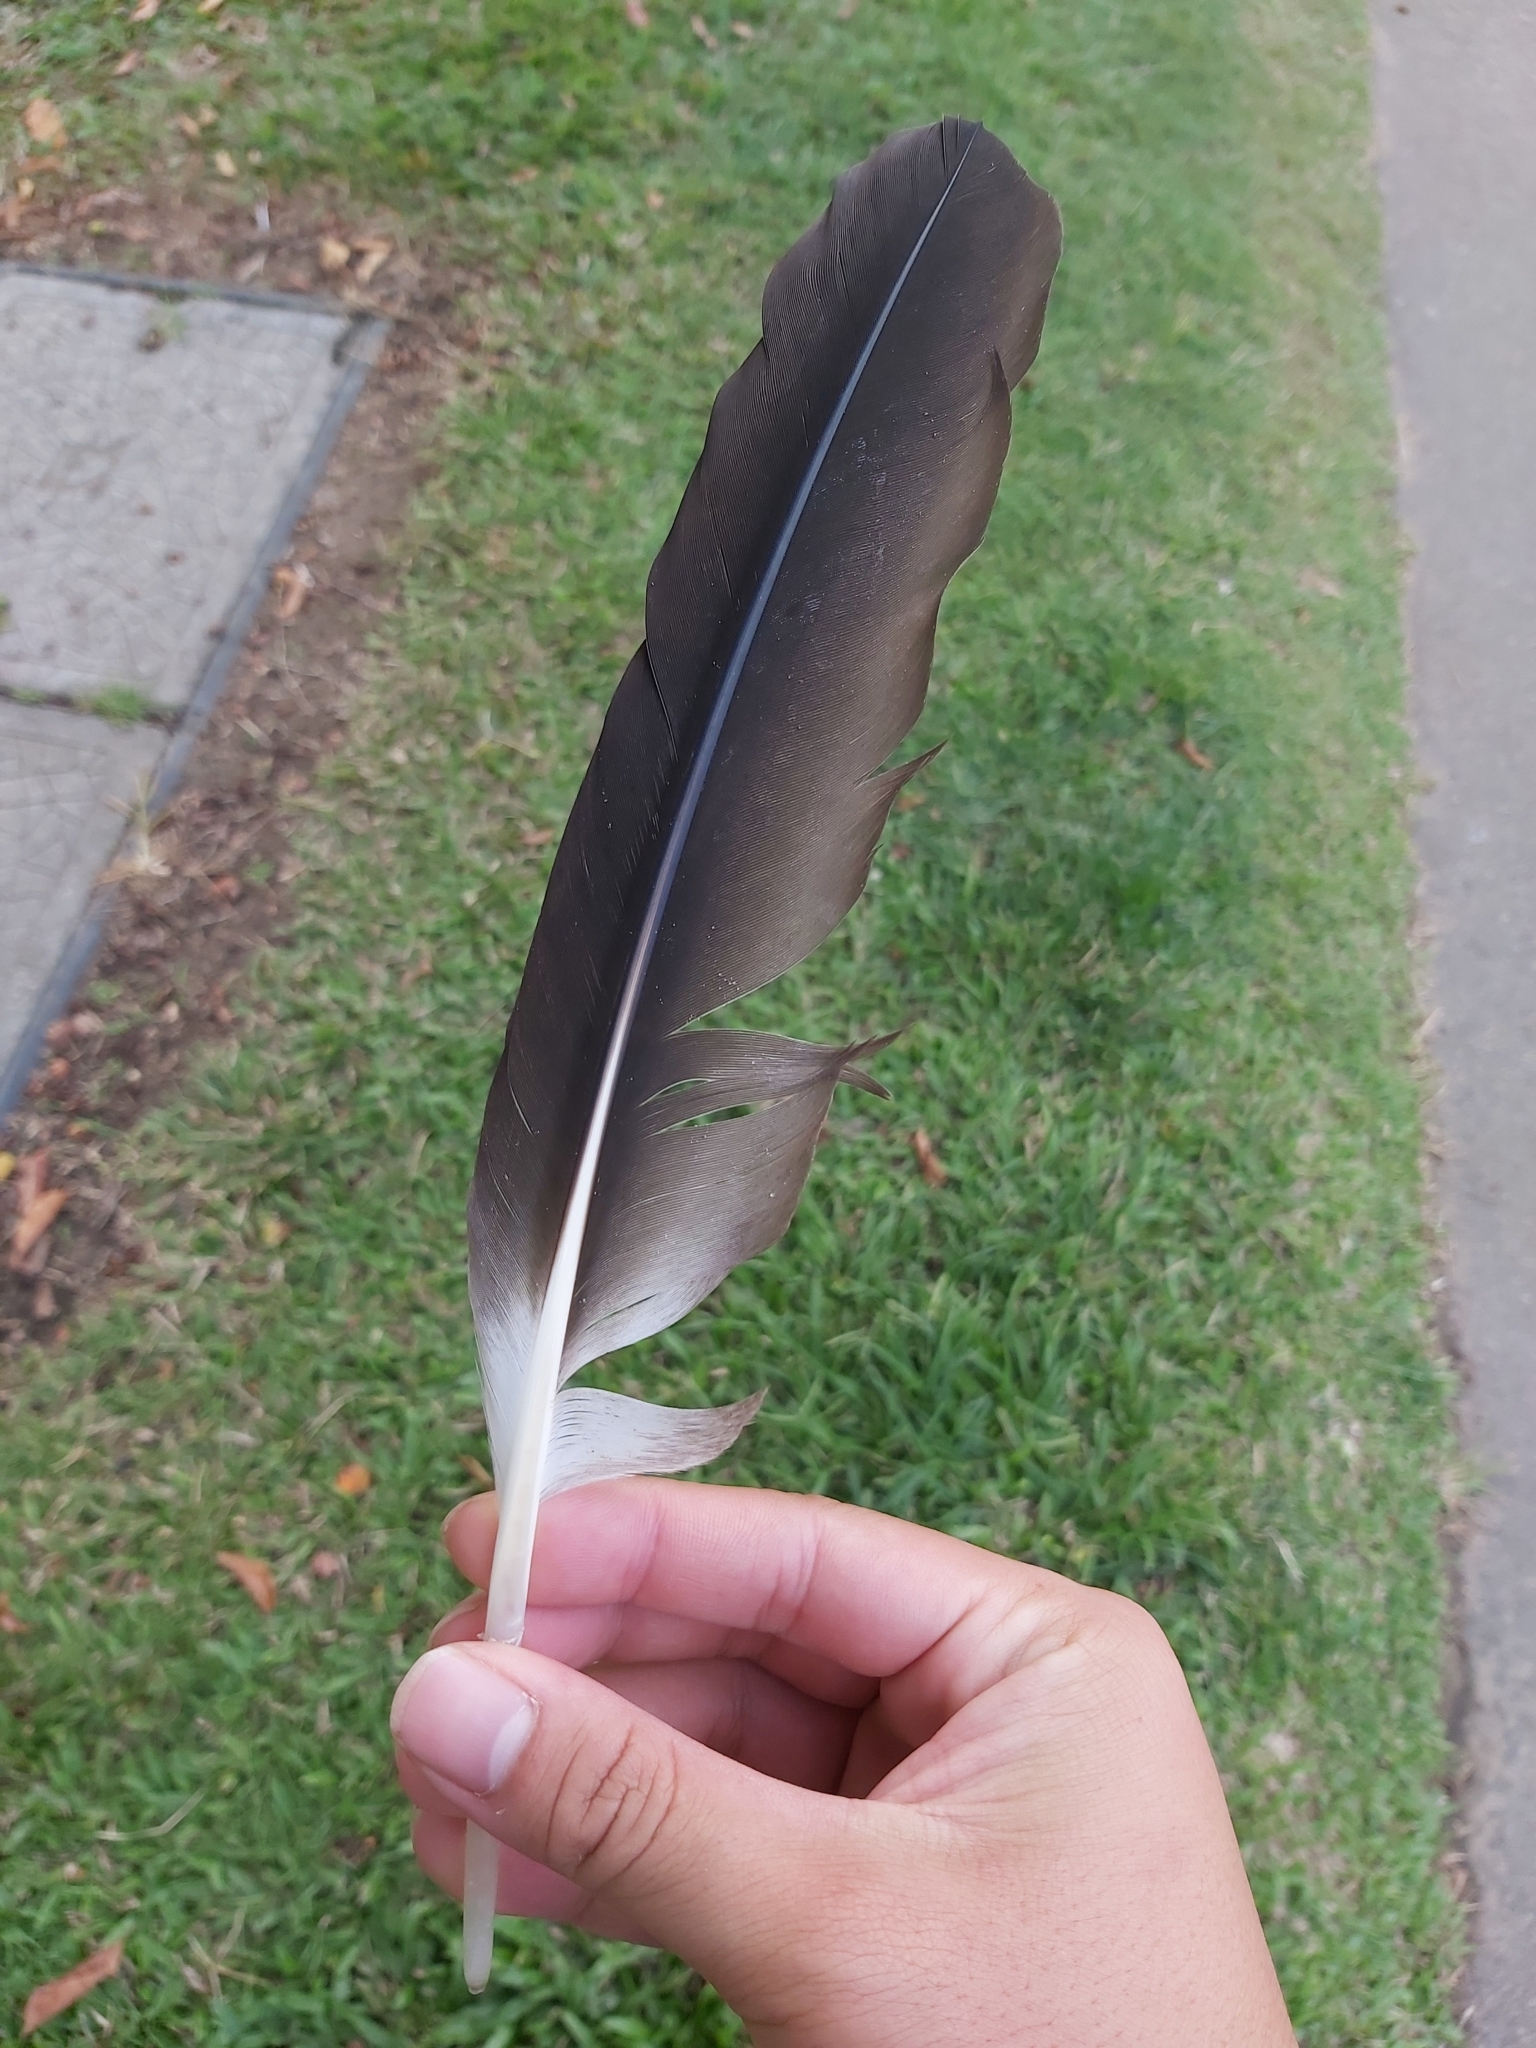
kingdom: Animalia
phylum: Chordata
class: Aves
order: Pelecaniformes
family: Pelecanidae
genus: Pelecanus
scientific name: Pelecanus conspicillatus
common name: Australian pelican
